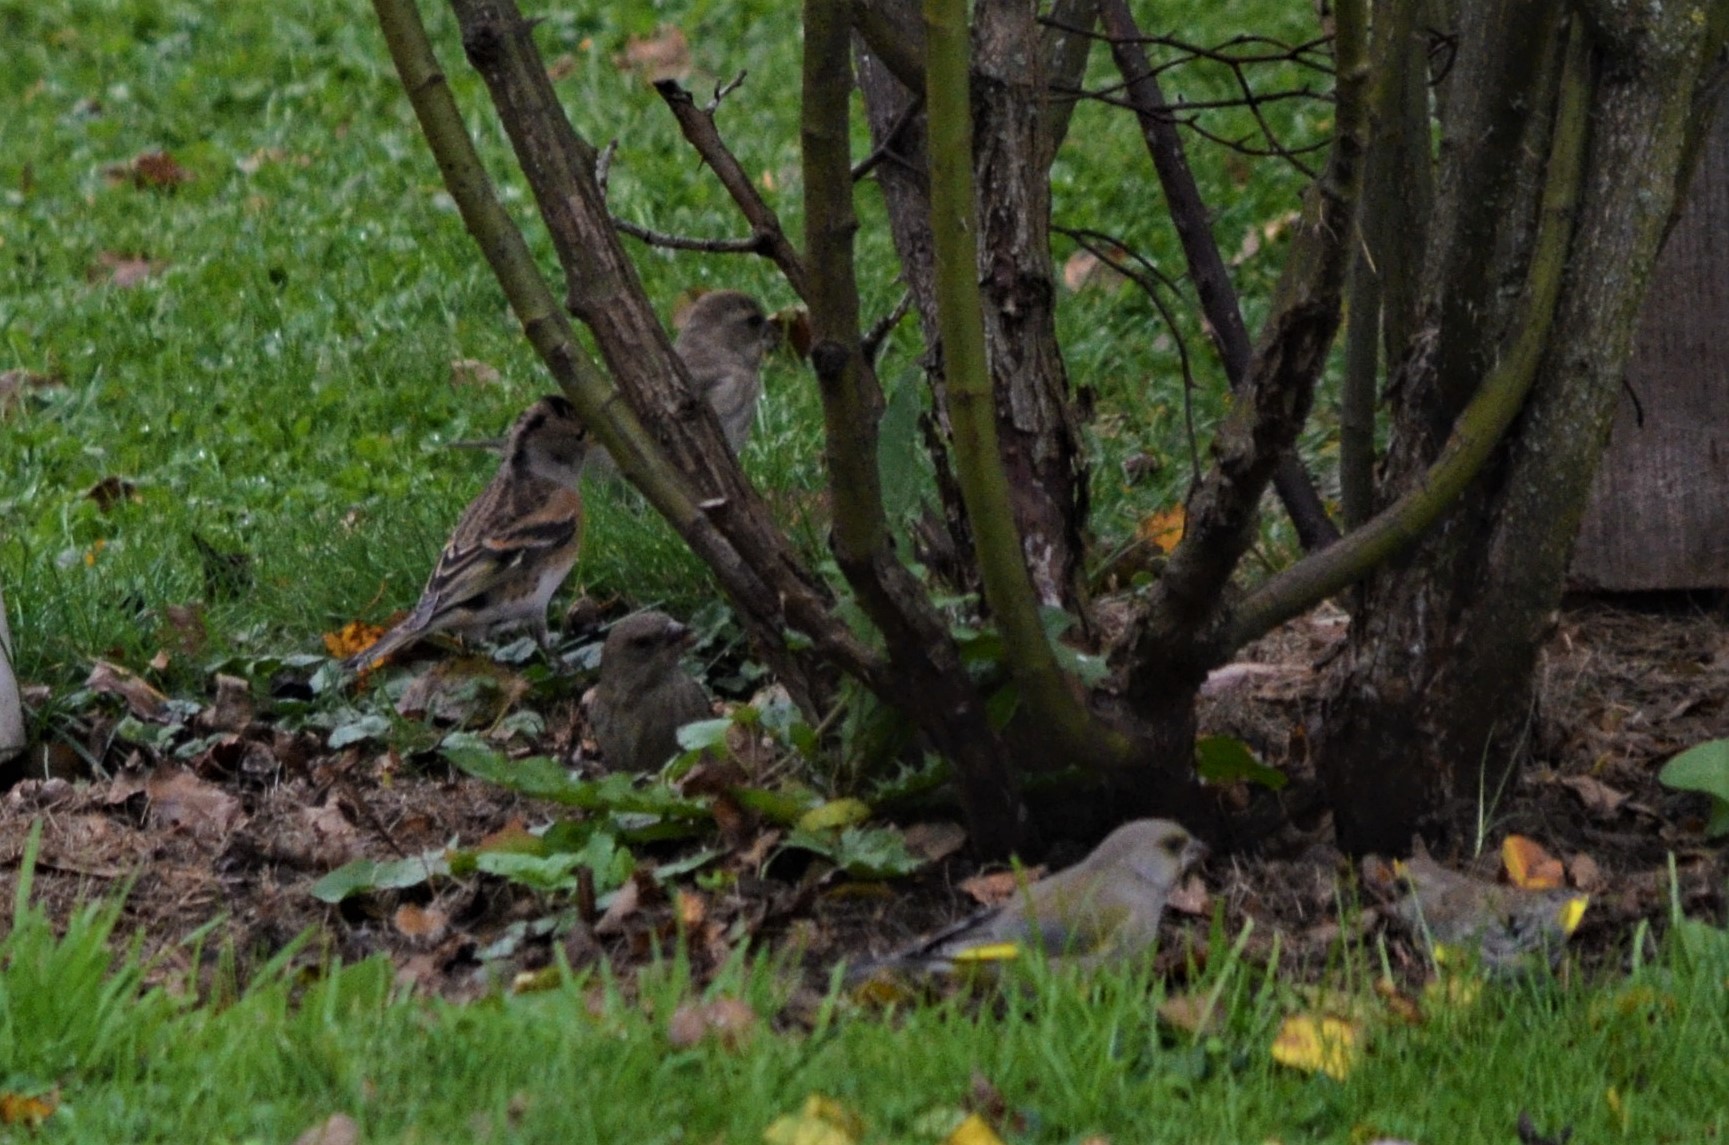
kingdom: Animalia
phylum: Chordata
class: Aves
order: Passeriformes
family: Fringillidae
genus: Fringilla
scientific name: Fringilla montifringilla
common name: Brambling
